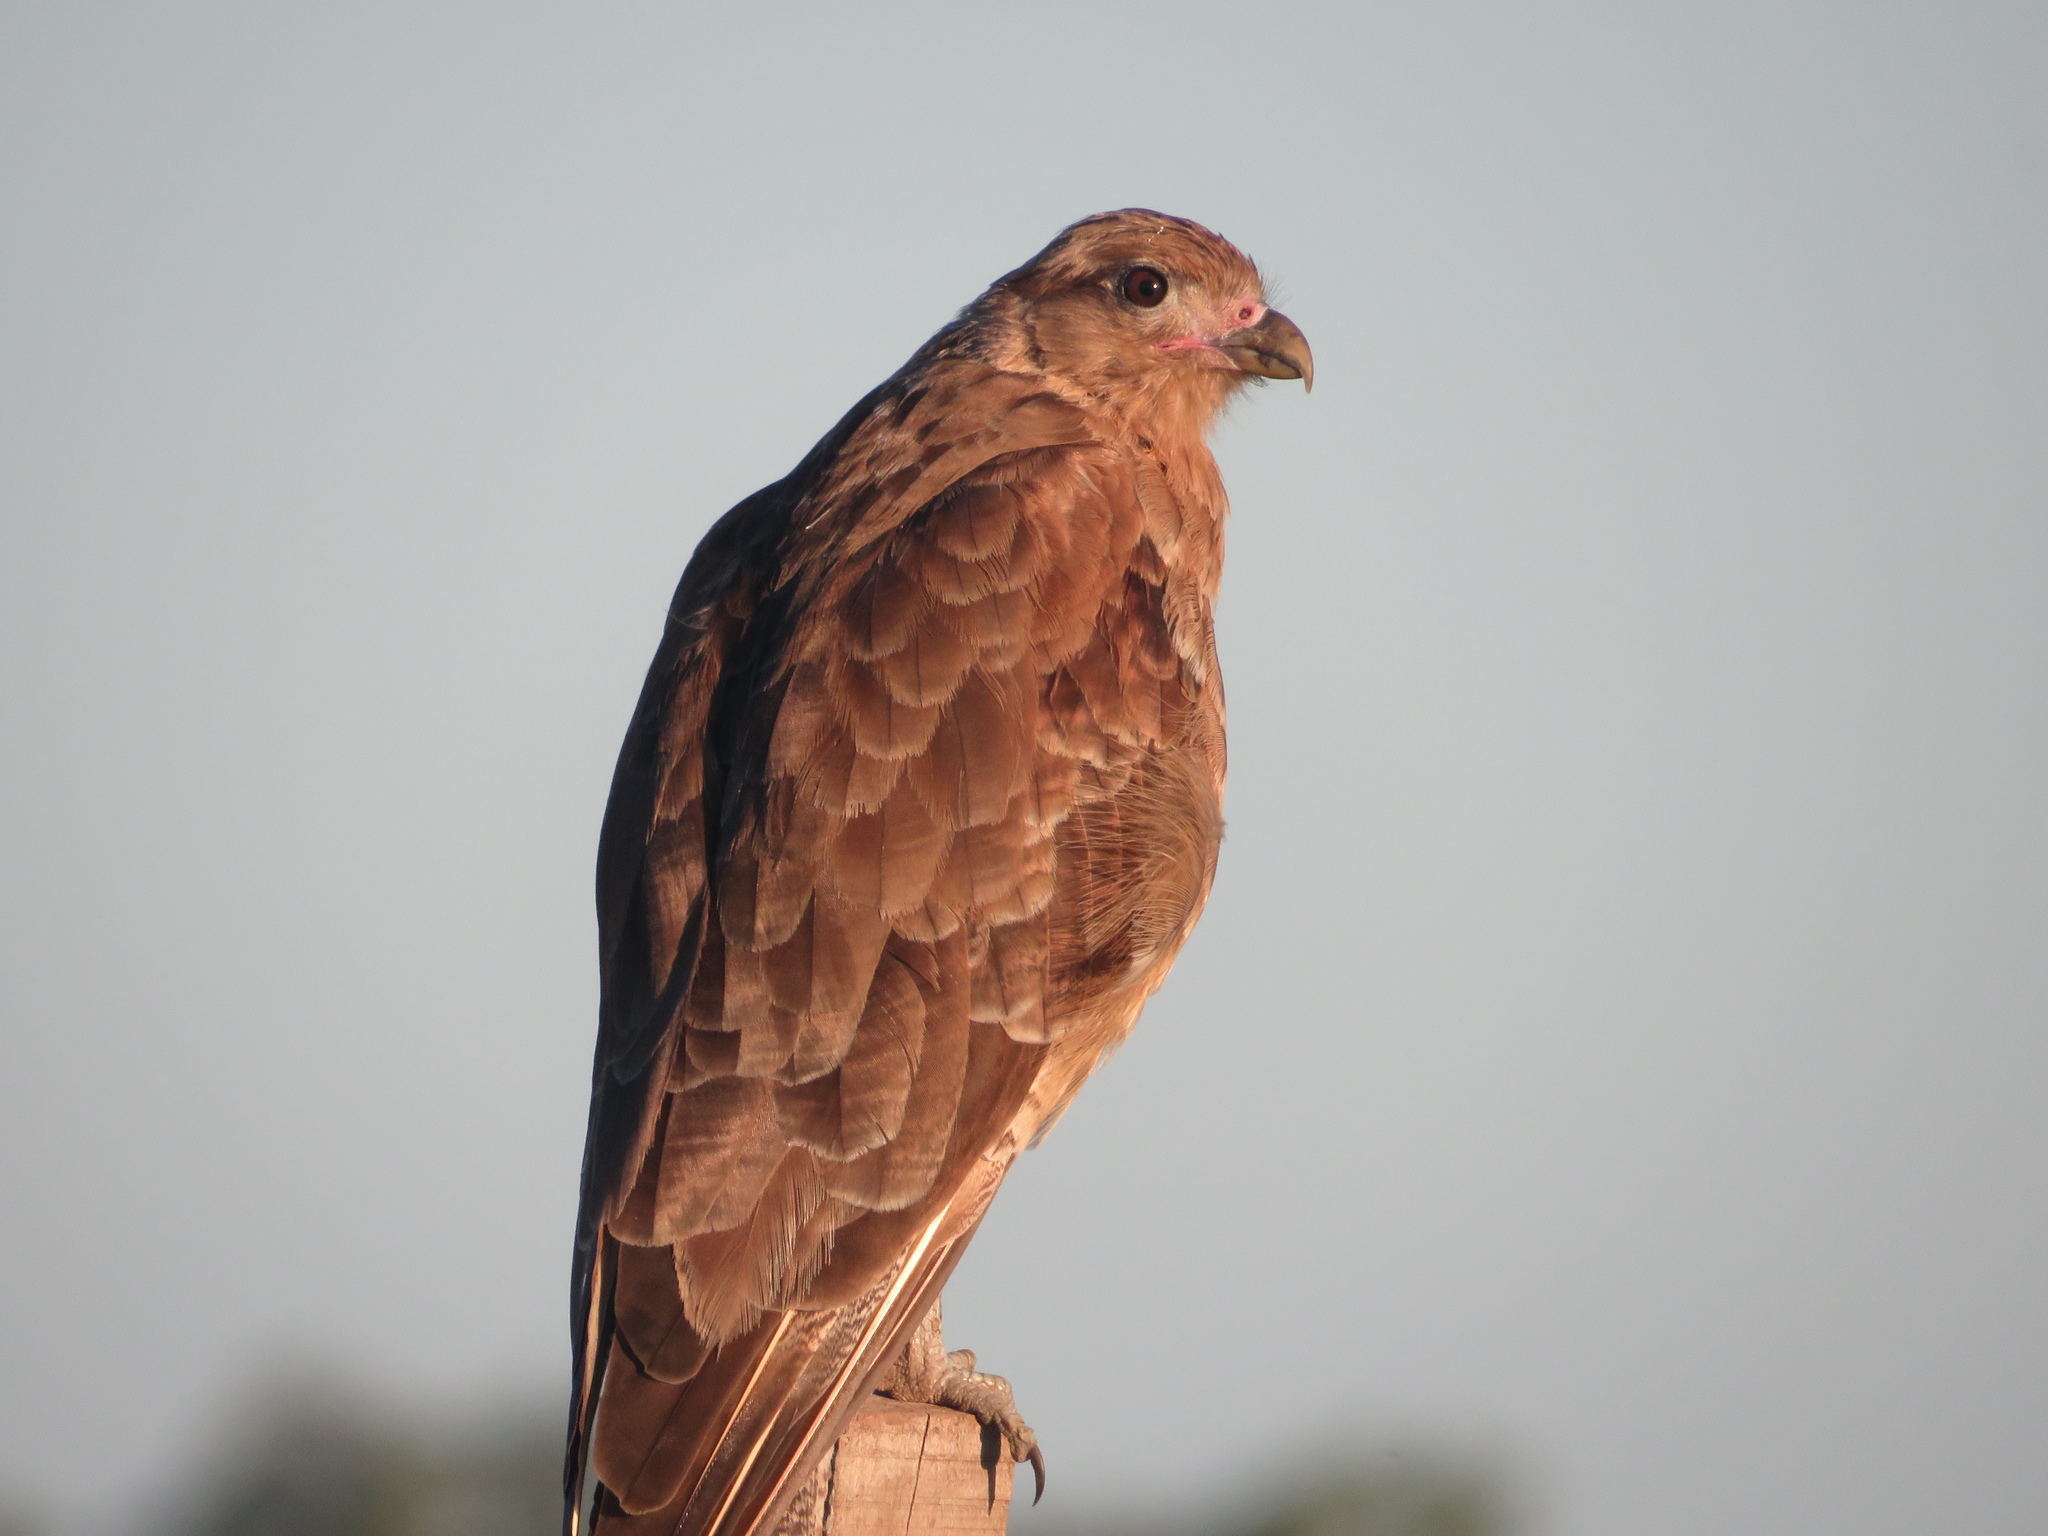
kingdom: Animalia
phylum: Chordata
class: Aves
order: Falconiformes
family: Falconidae
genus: Daptrius
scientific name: Daptrius
